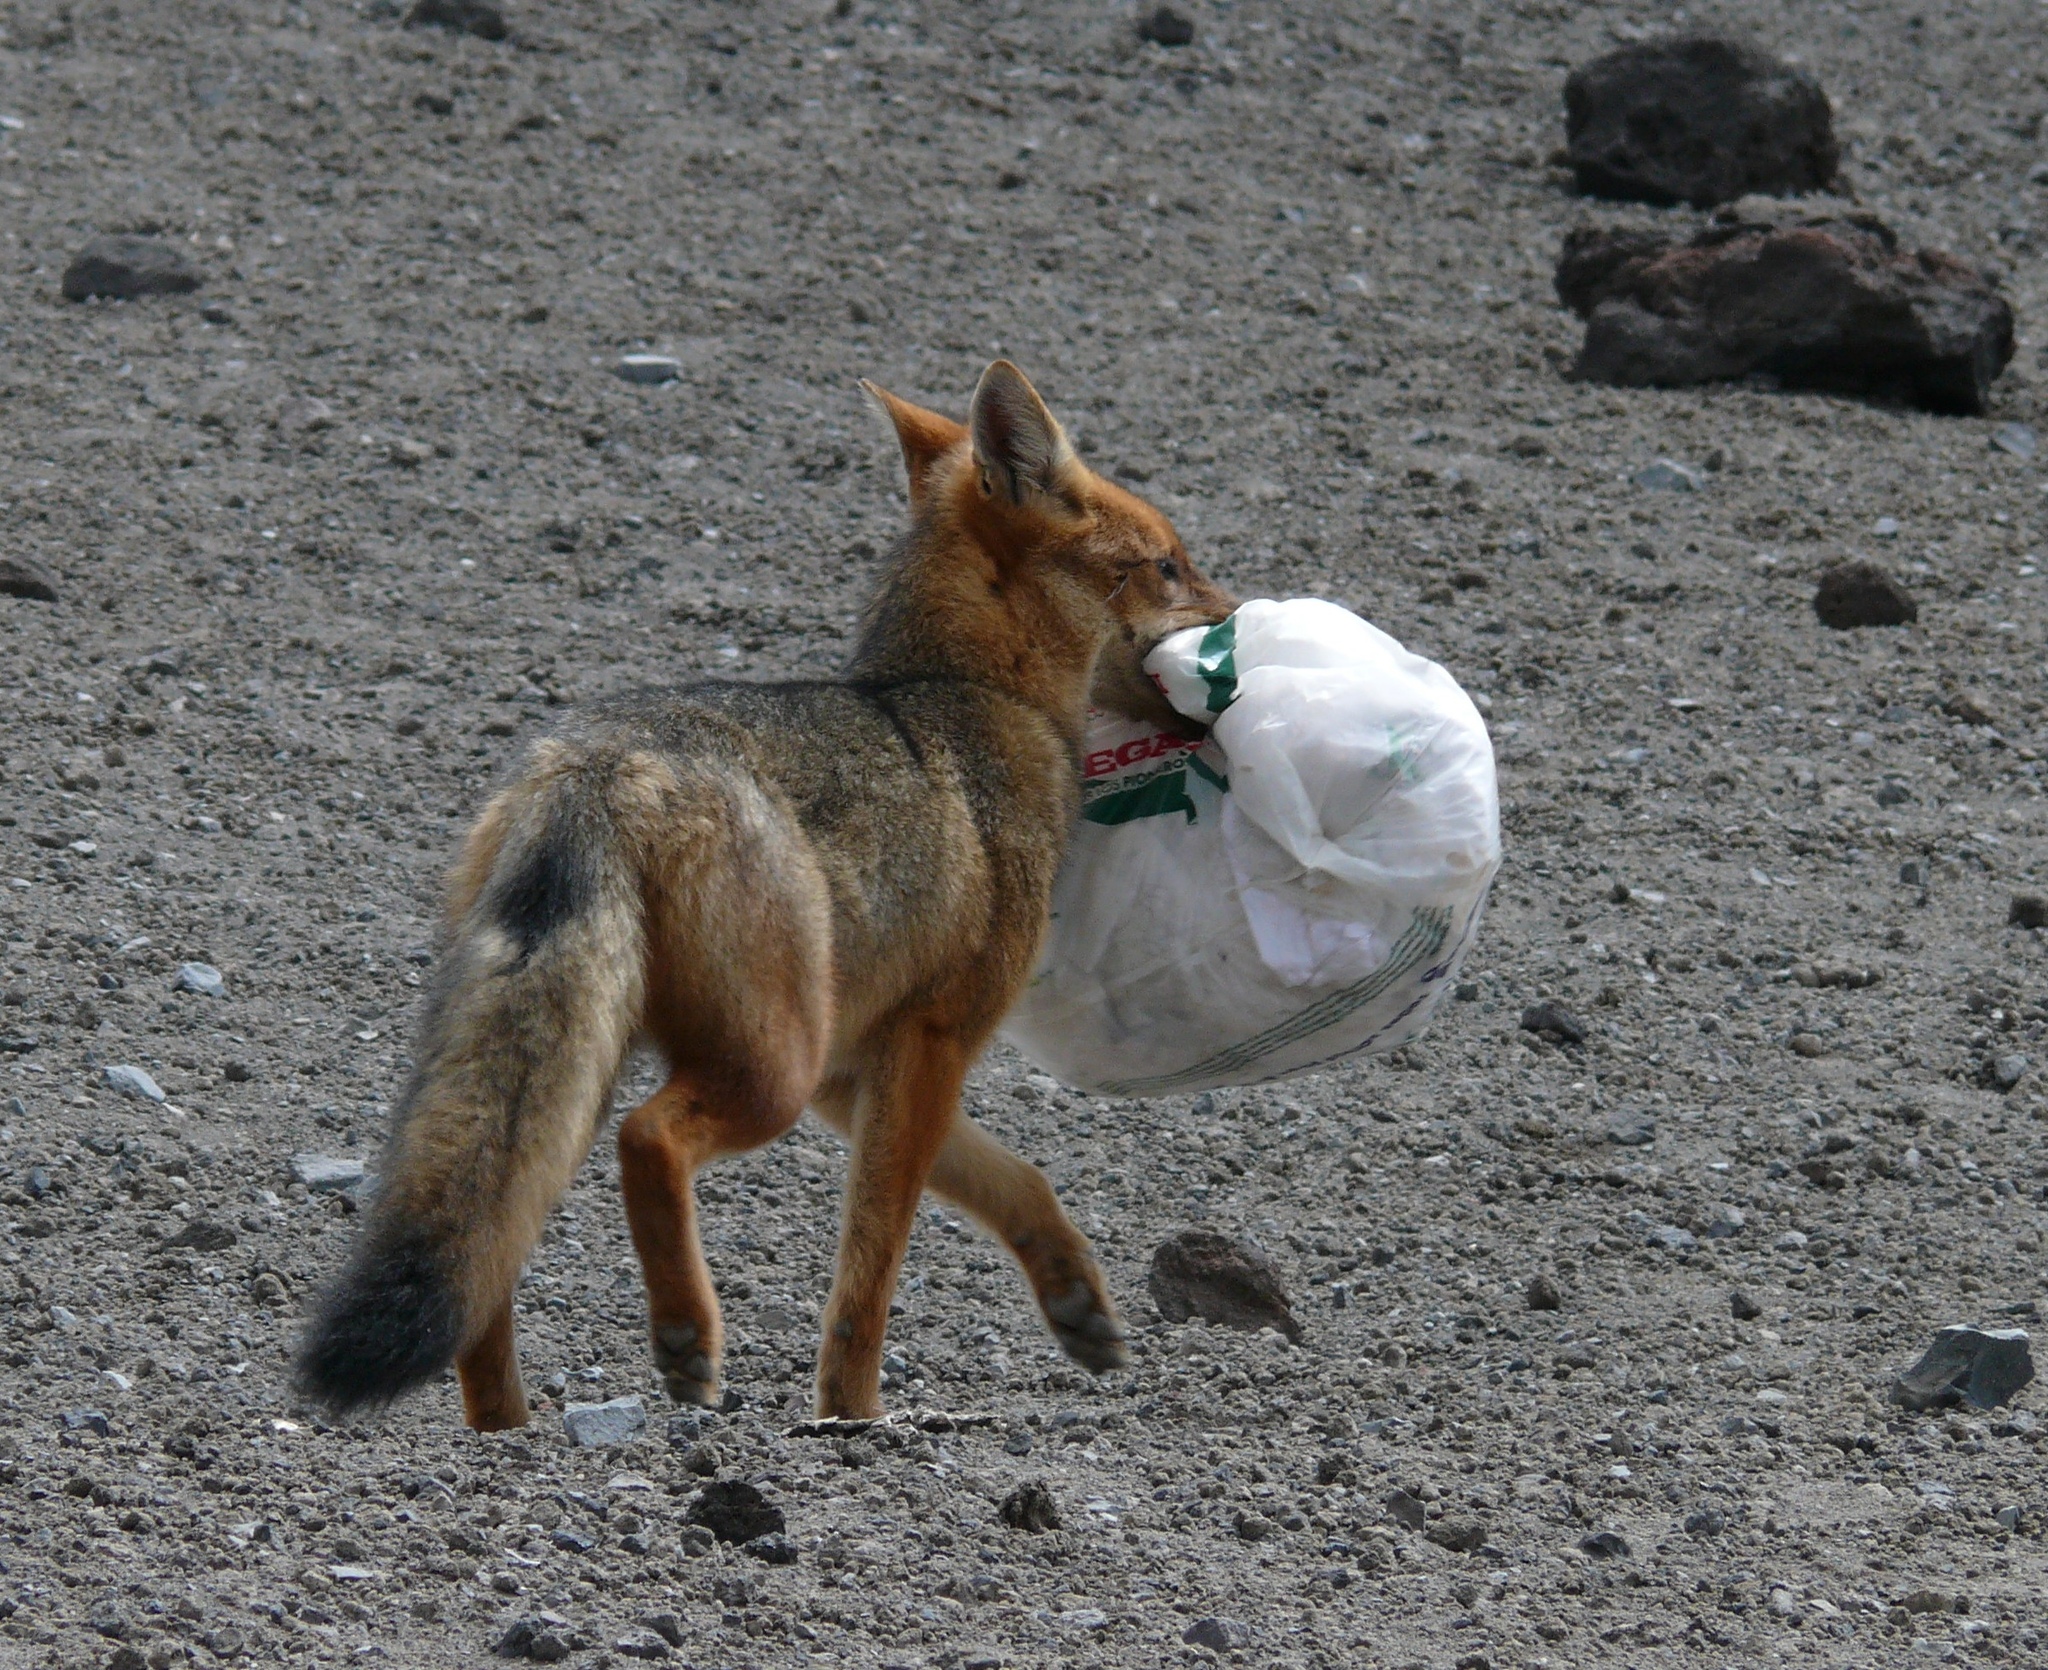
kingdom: Animalia
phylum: Chordata
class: Mammalia
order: Carnivora
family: Canidae
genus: Lycalopex
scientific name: Lycalopex culpaeus
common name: Culpeo
